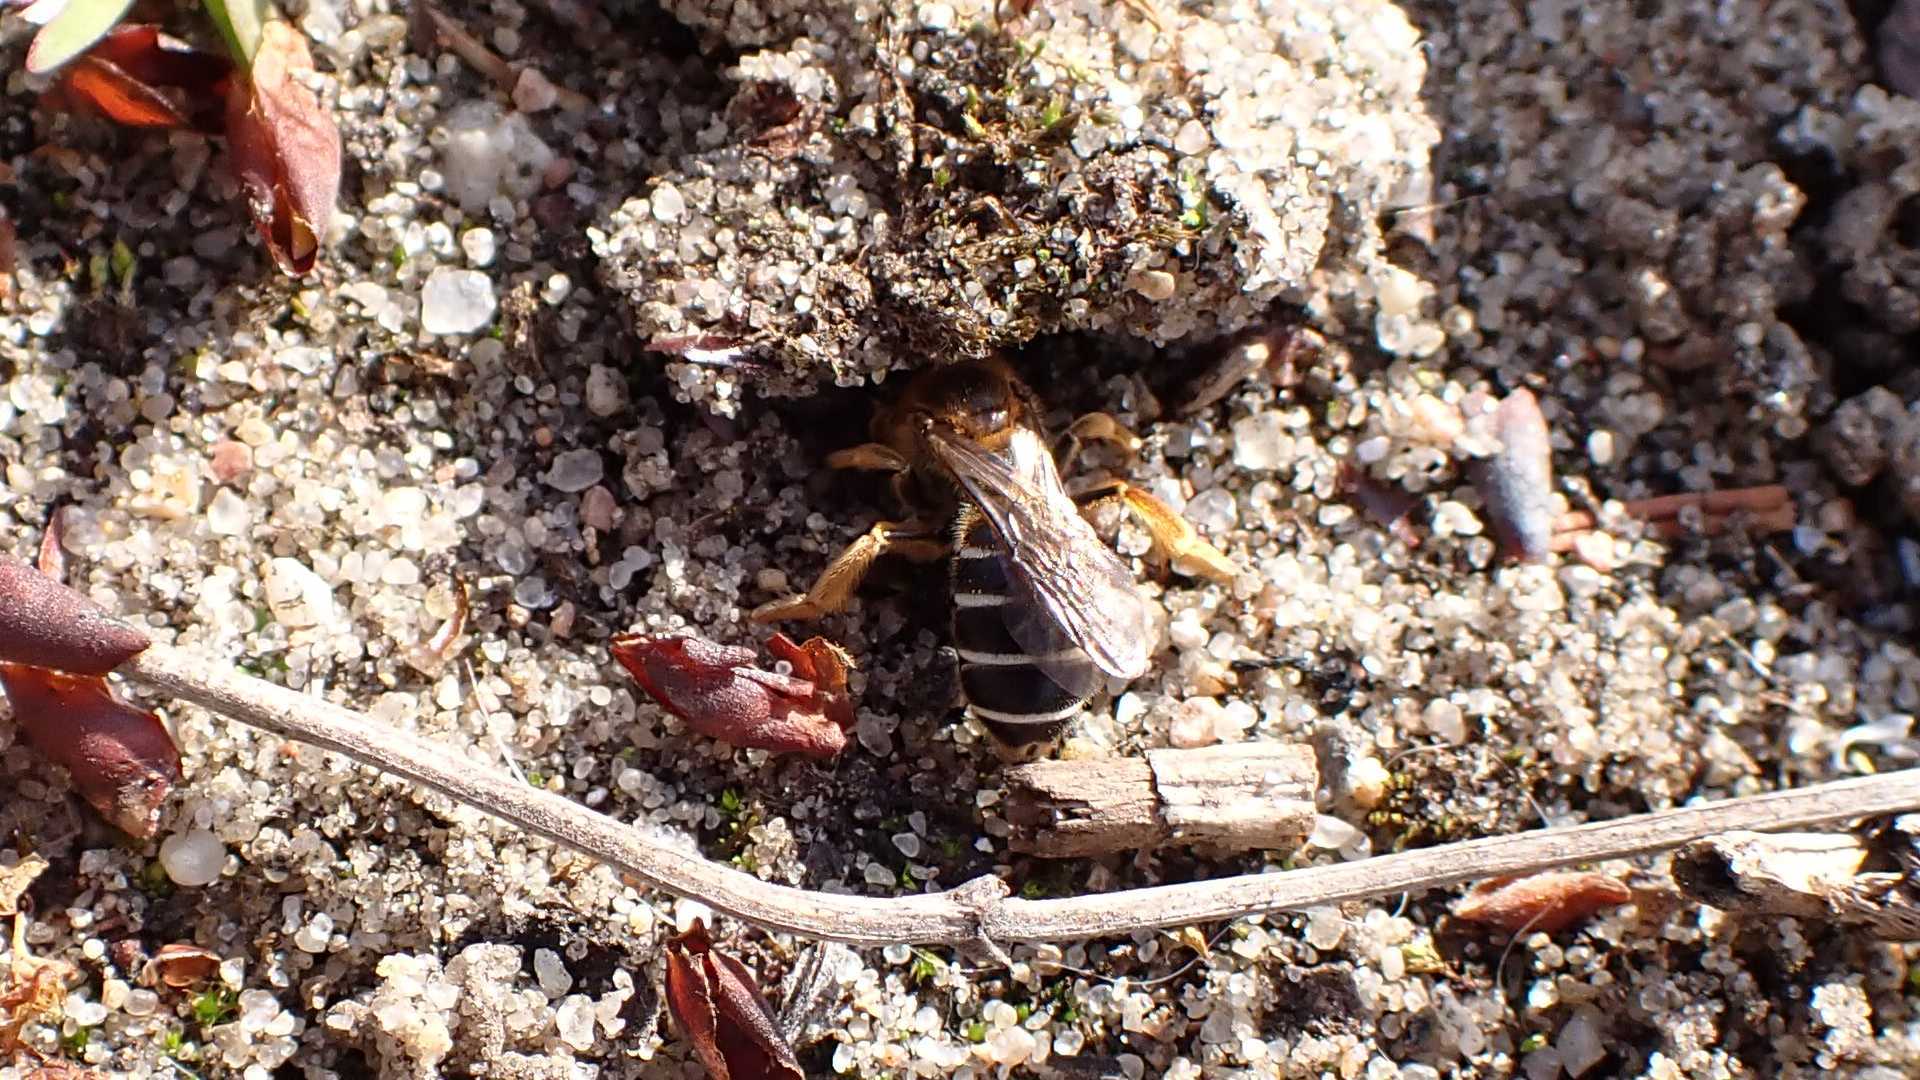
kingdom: Animalia
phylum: Arthropoda
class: Insecta
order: Hymenoptera
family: Halictidae
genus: Halictus
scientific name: Halictus rubicundus
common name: Orange-legged furrow bee
